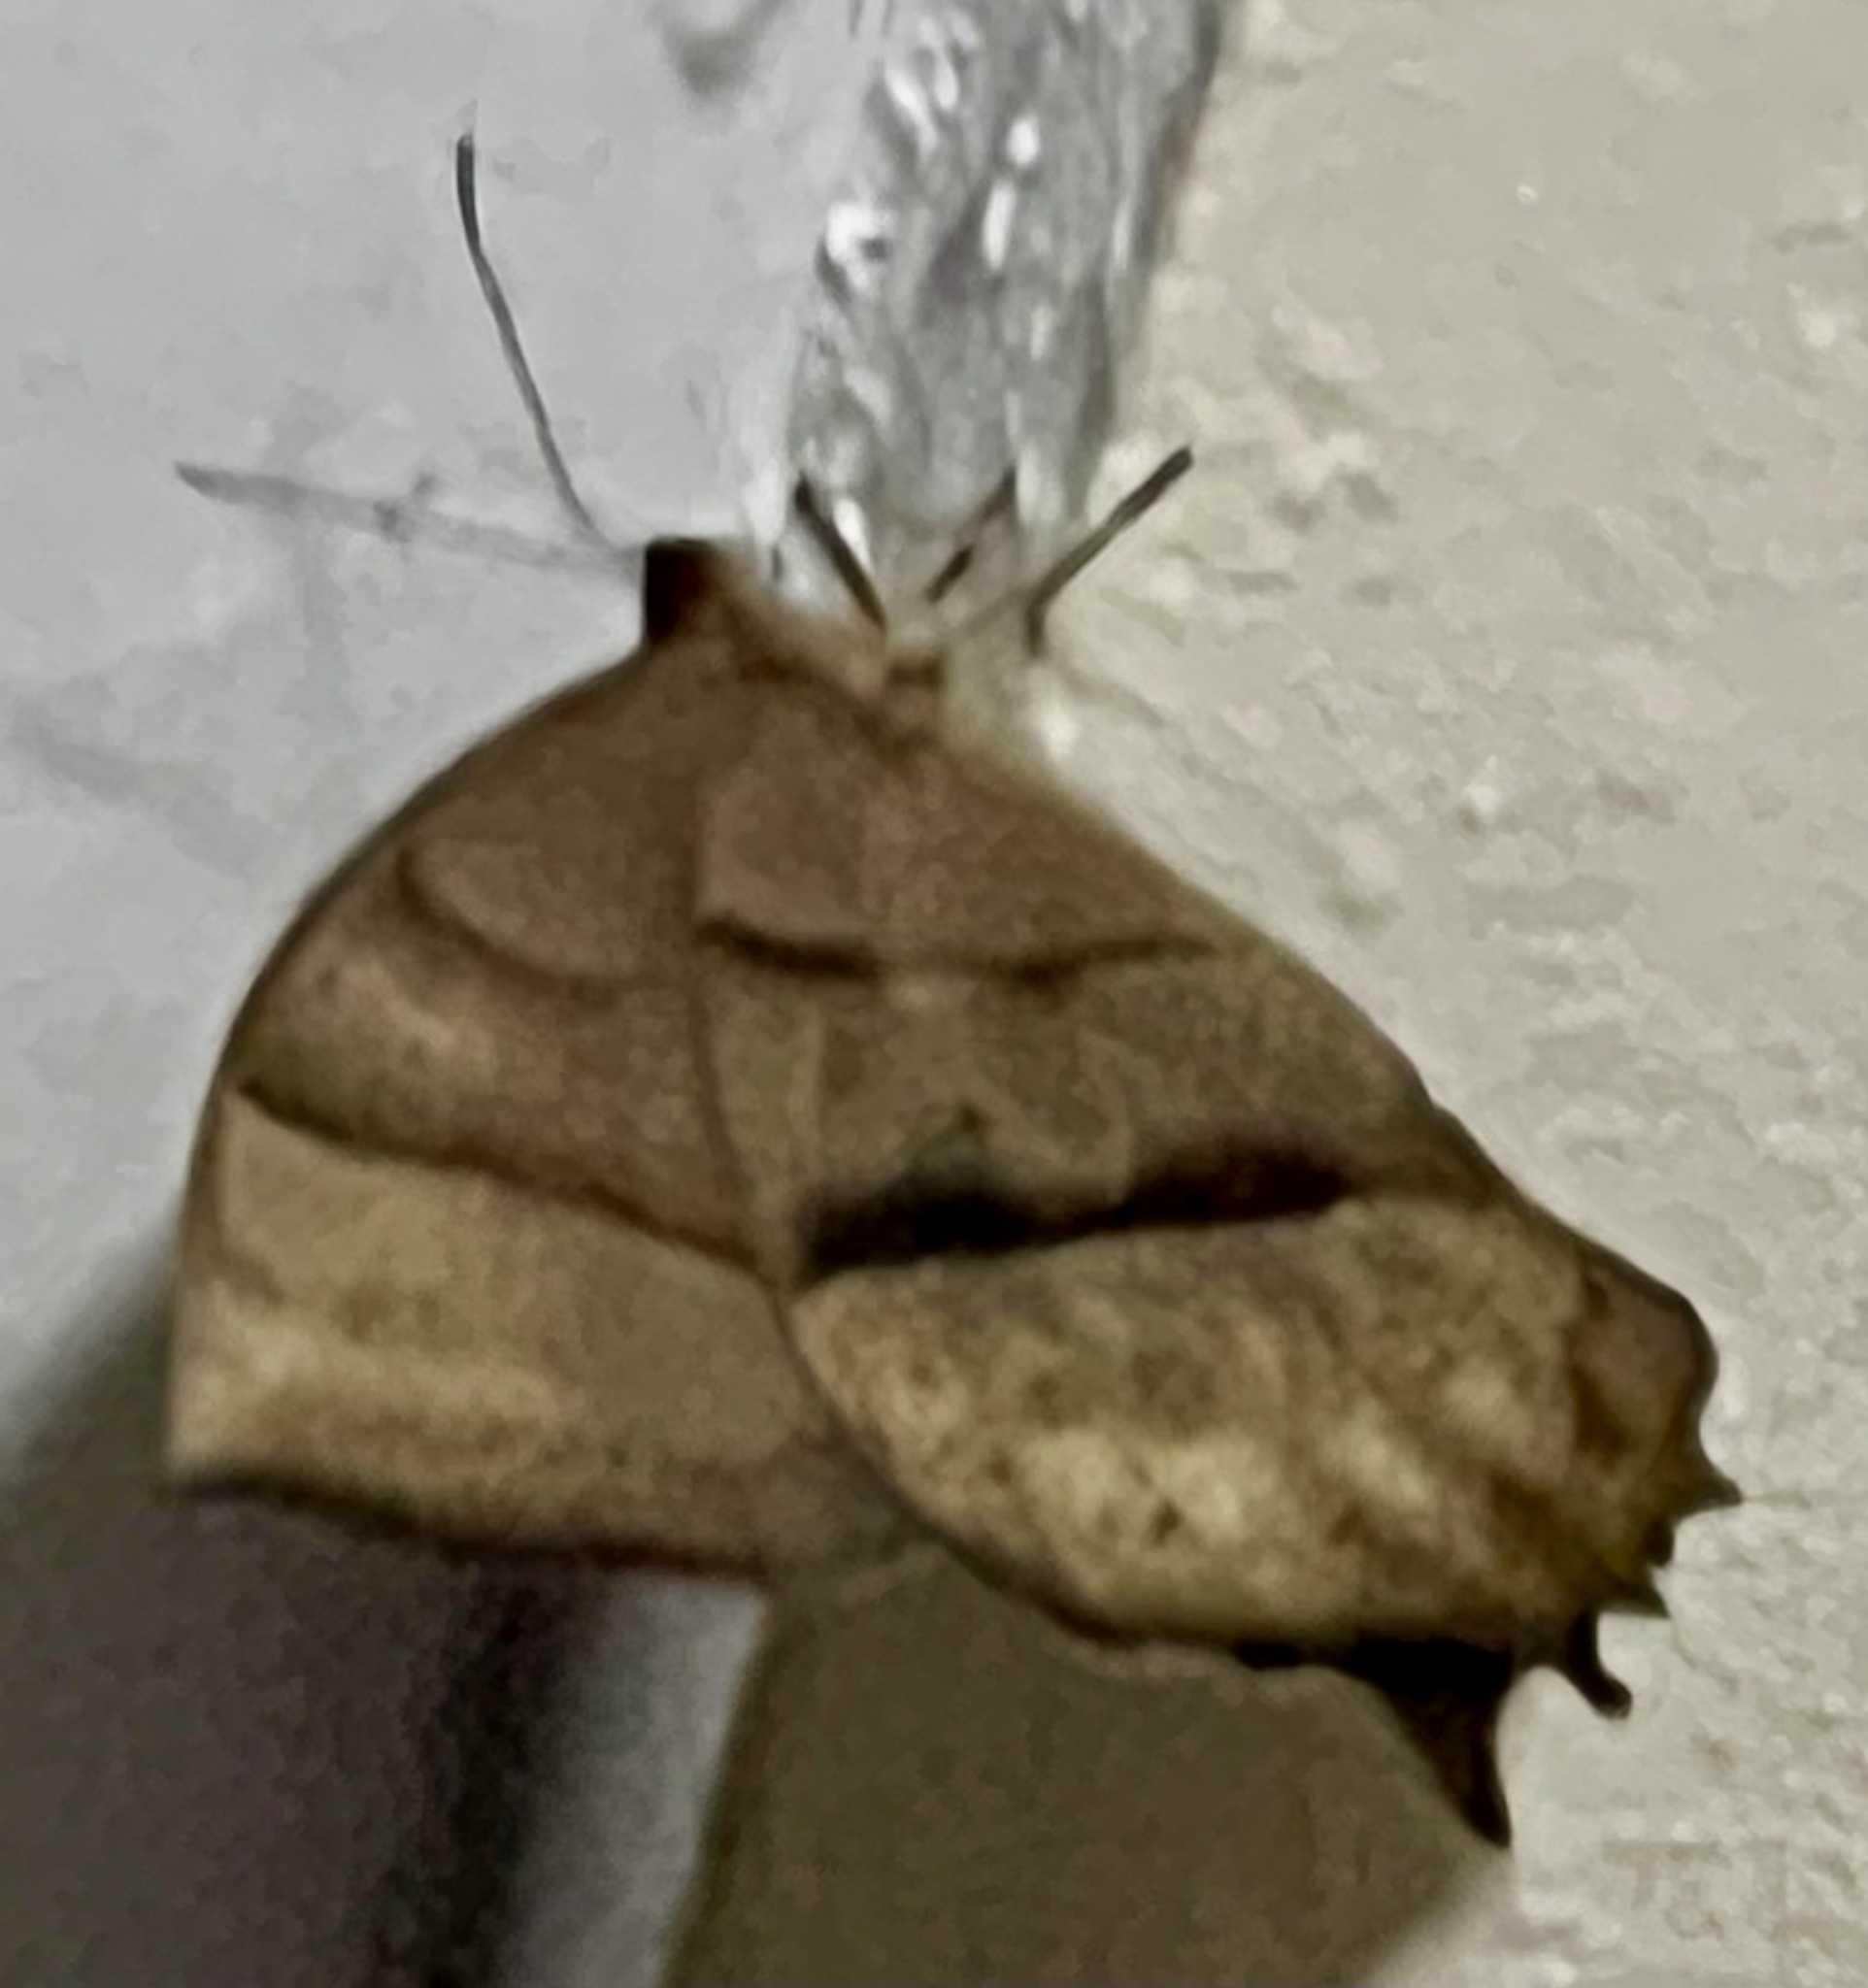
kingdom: Animalia
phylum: Arthropoda
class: Insecta
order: Lepidoptera
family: Nymphalidae
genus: Taygetis
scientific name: Taygetis nympha
